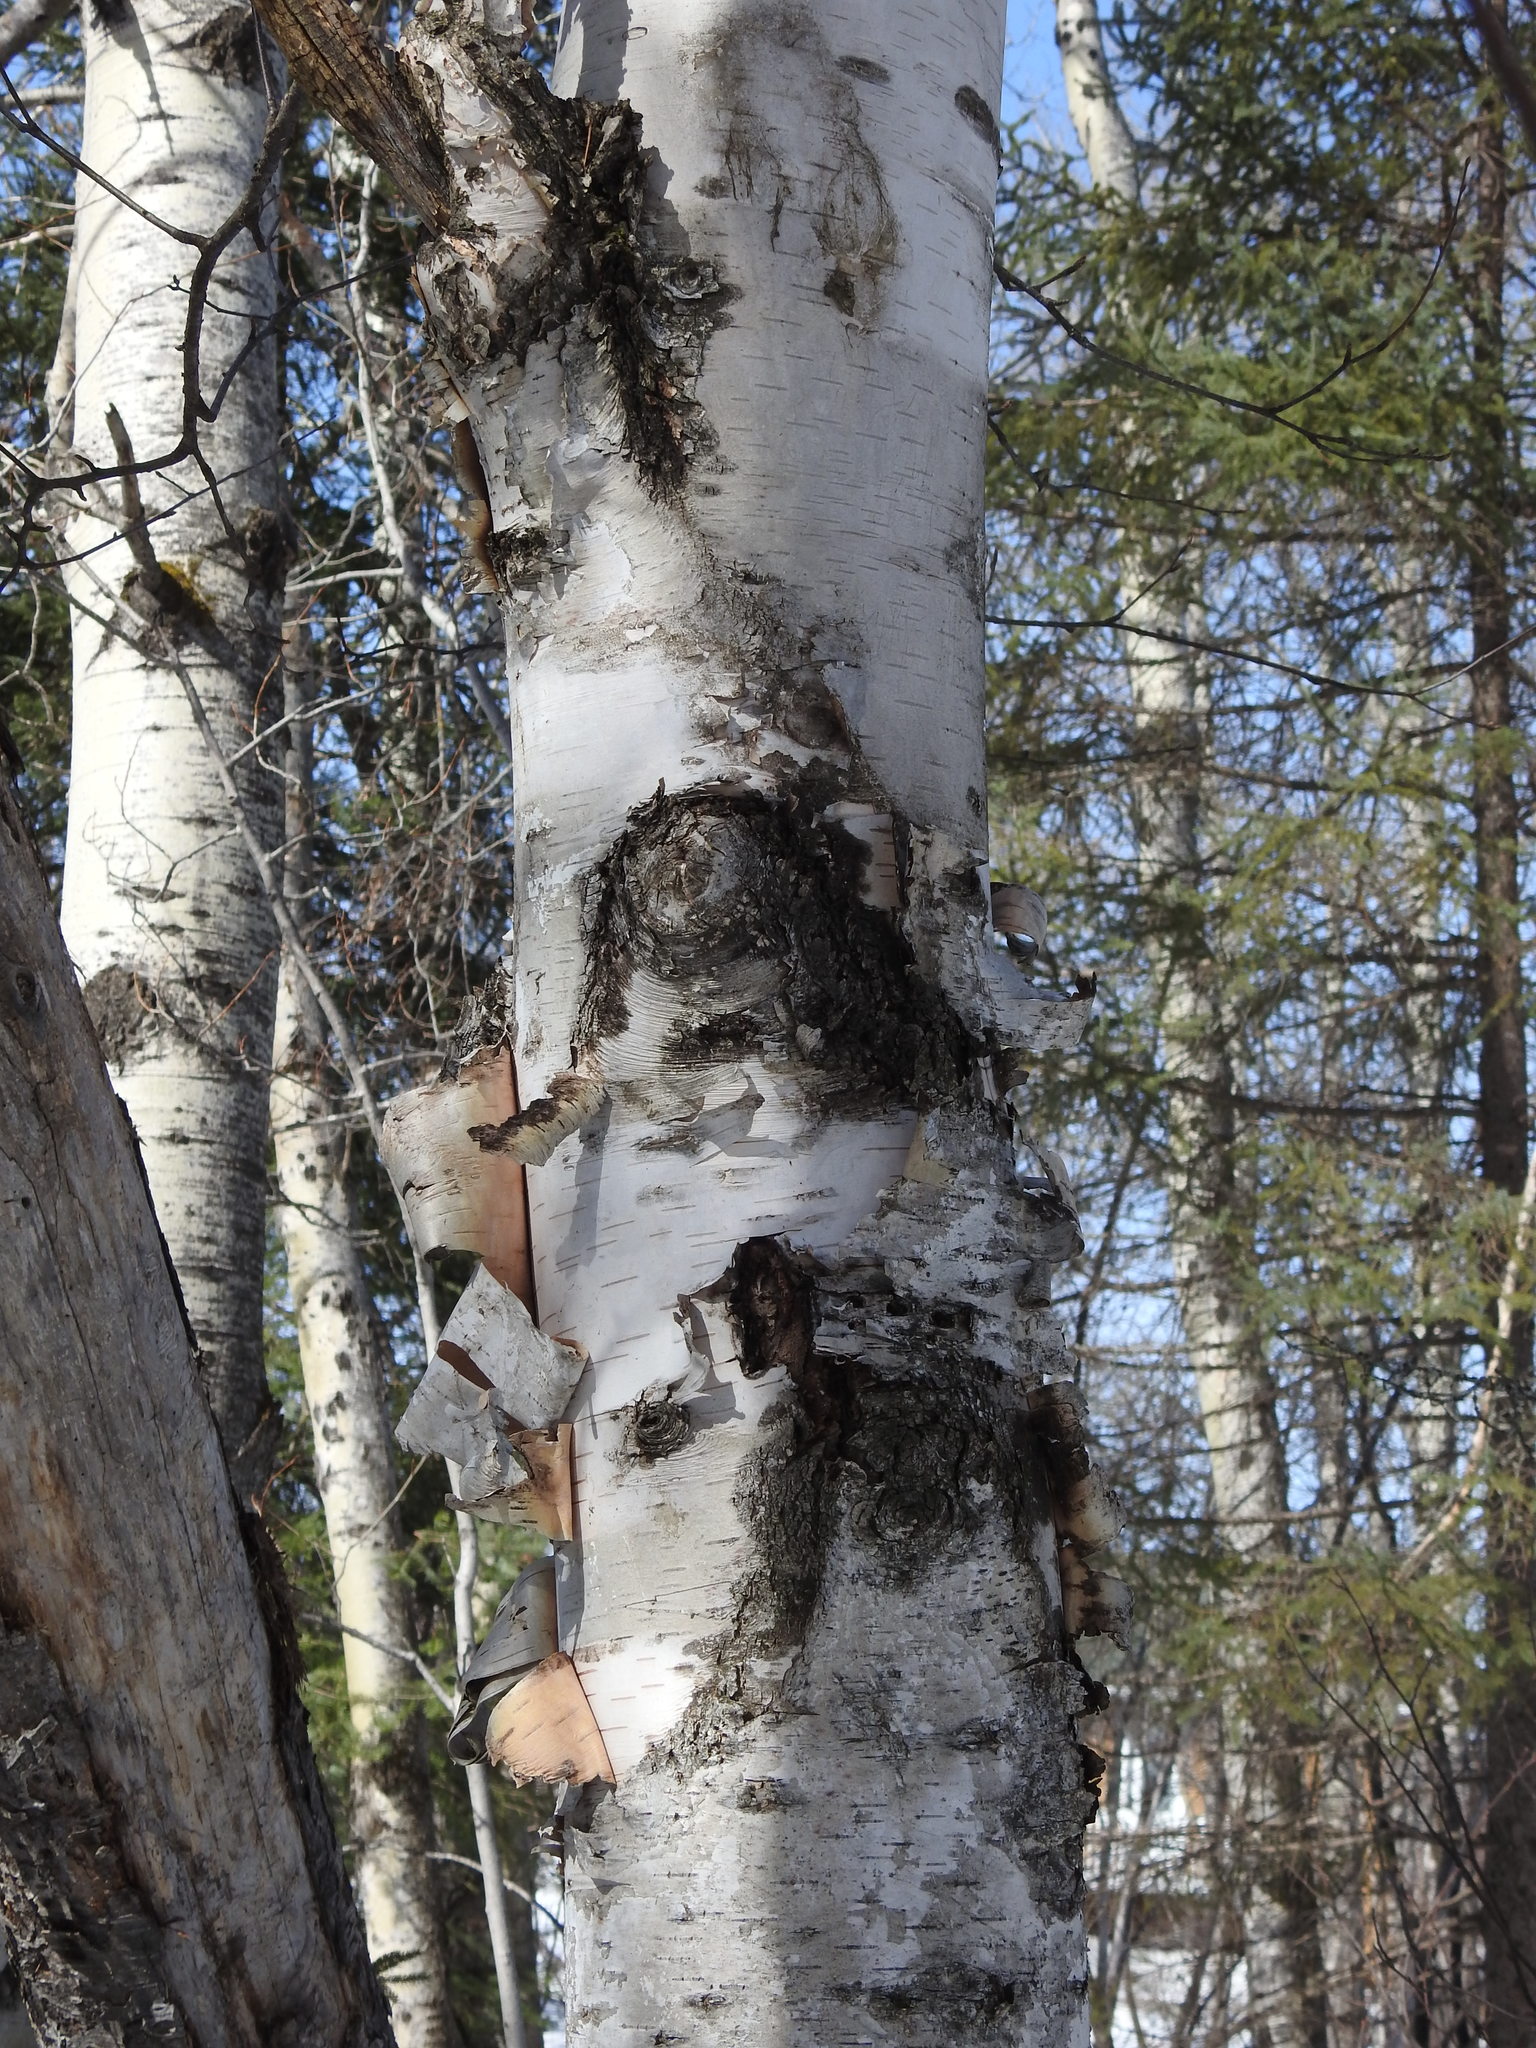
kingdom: Plantae
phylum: Tracheophyta
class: Magnoliopsida
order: Fagales
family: Betulaceae
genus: Betula
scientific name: Betula papyrifera
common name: Paper birch
